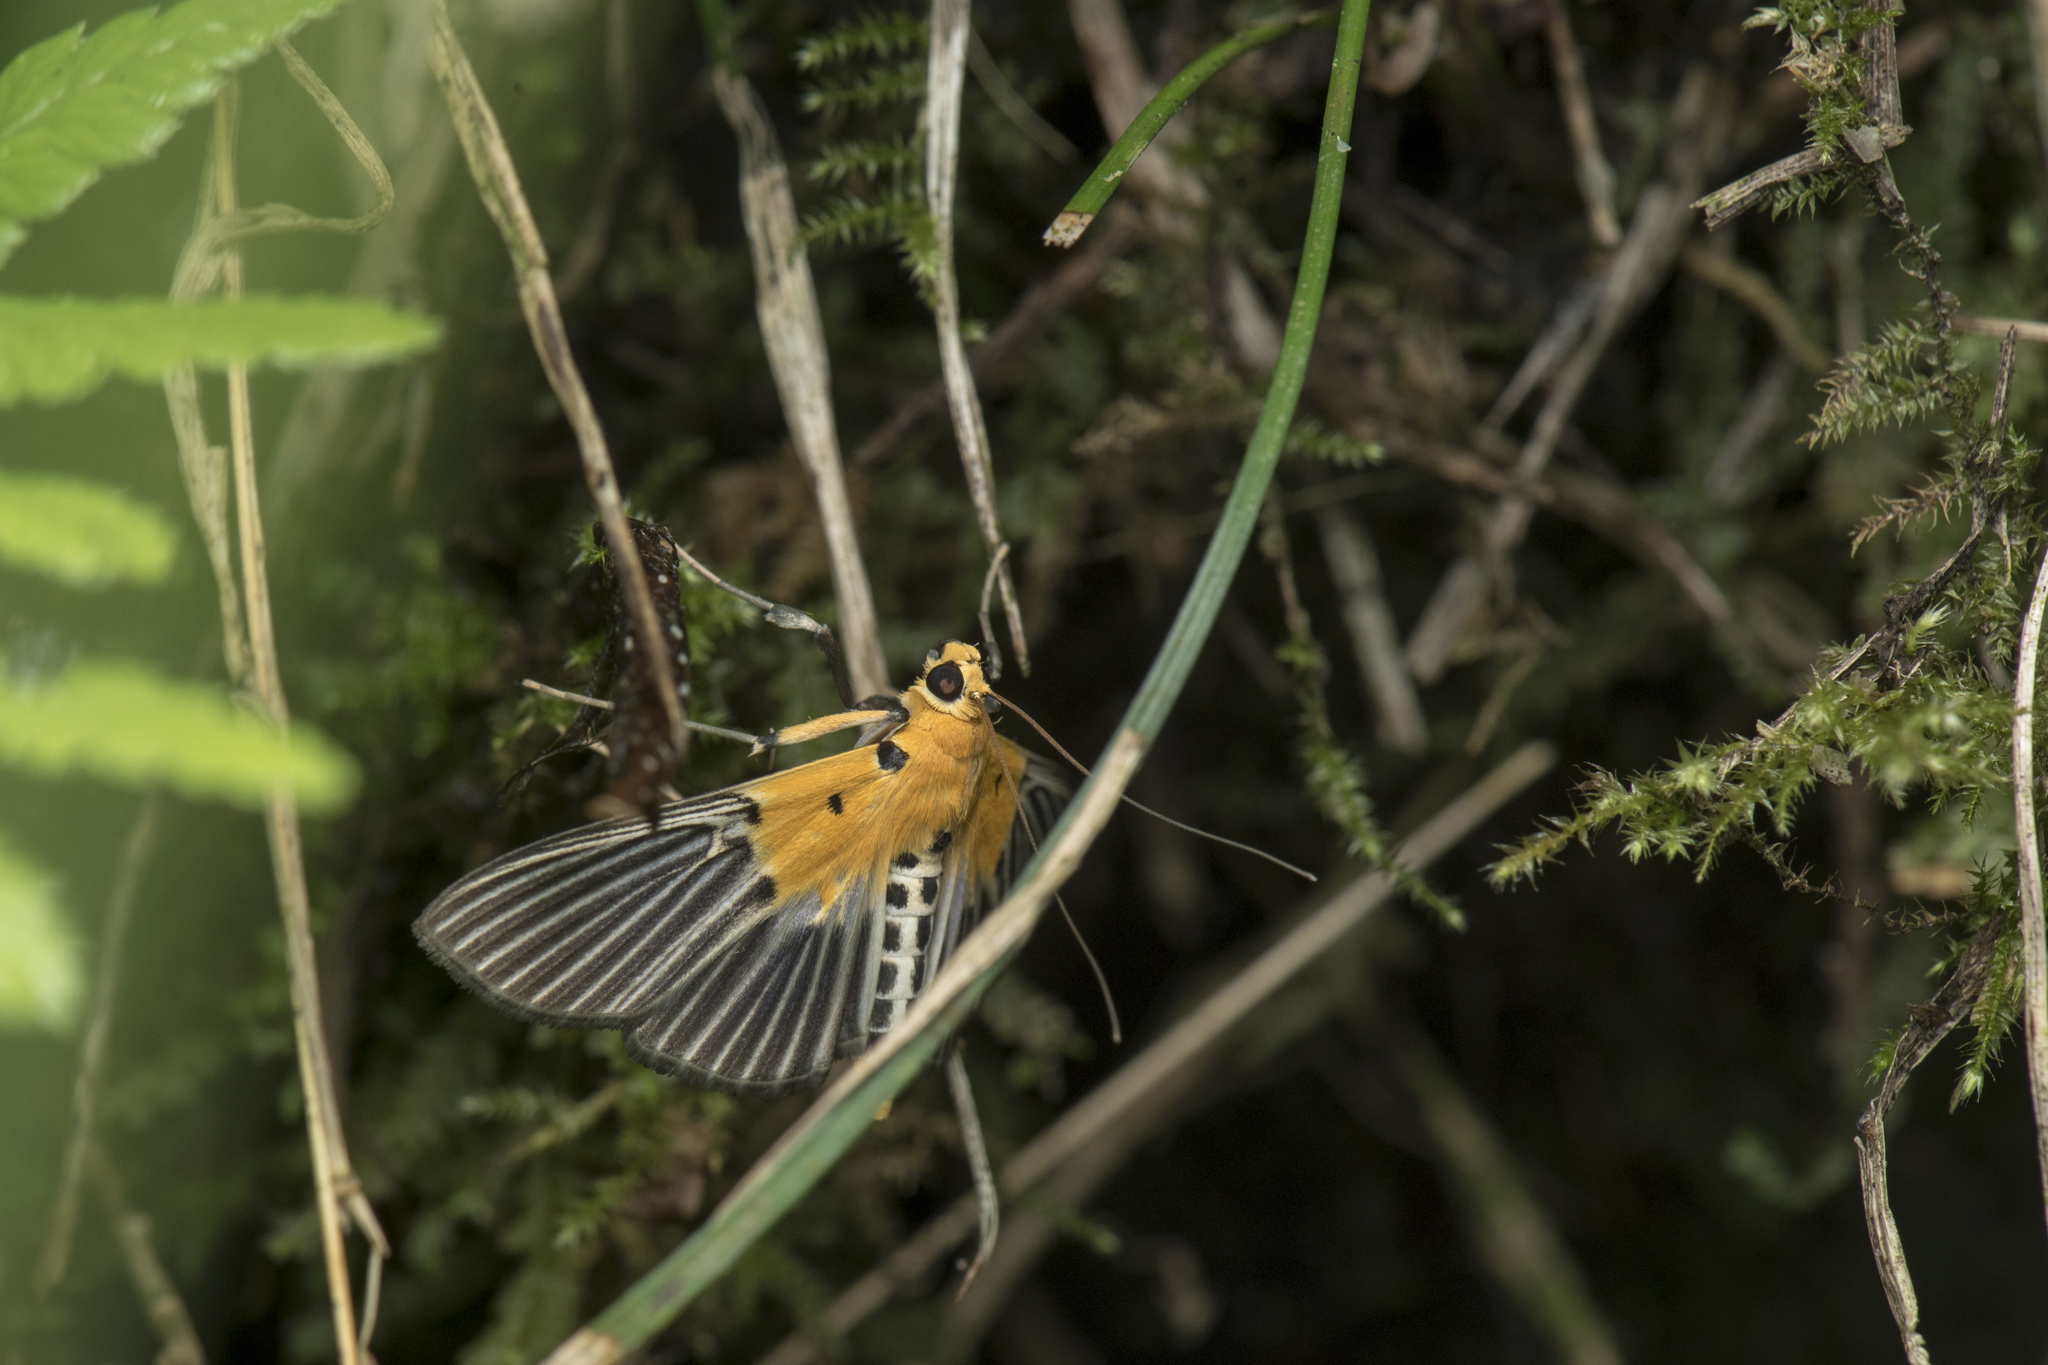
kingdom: Animalia
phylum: Arthropoda
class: Insecta
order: Lepidoptera
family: Crambidae
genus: Nevrina
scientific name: Nevrina procopia
